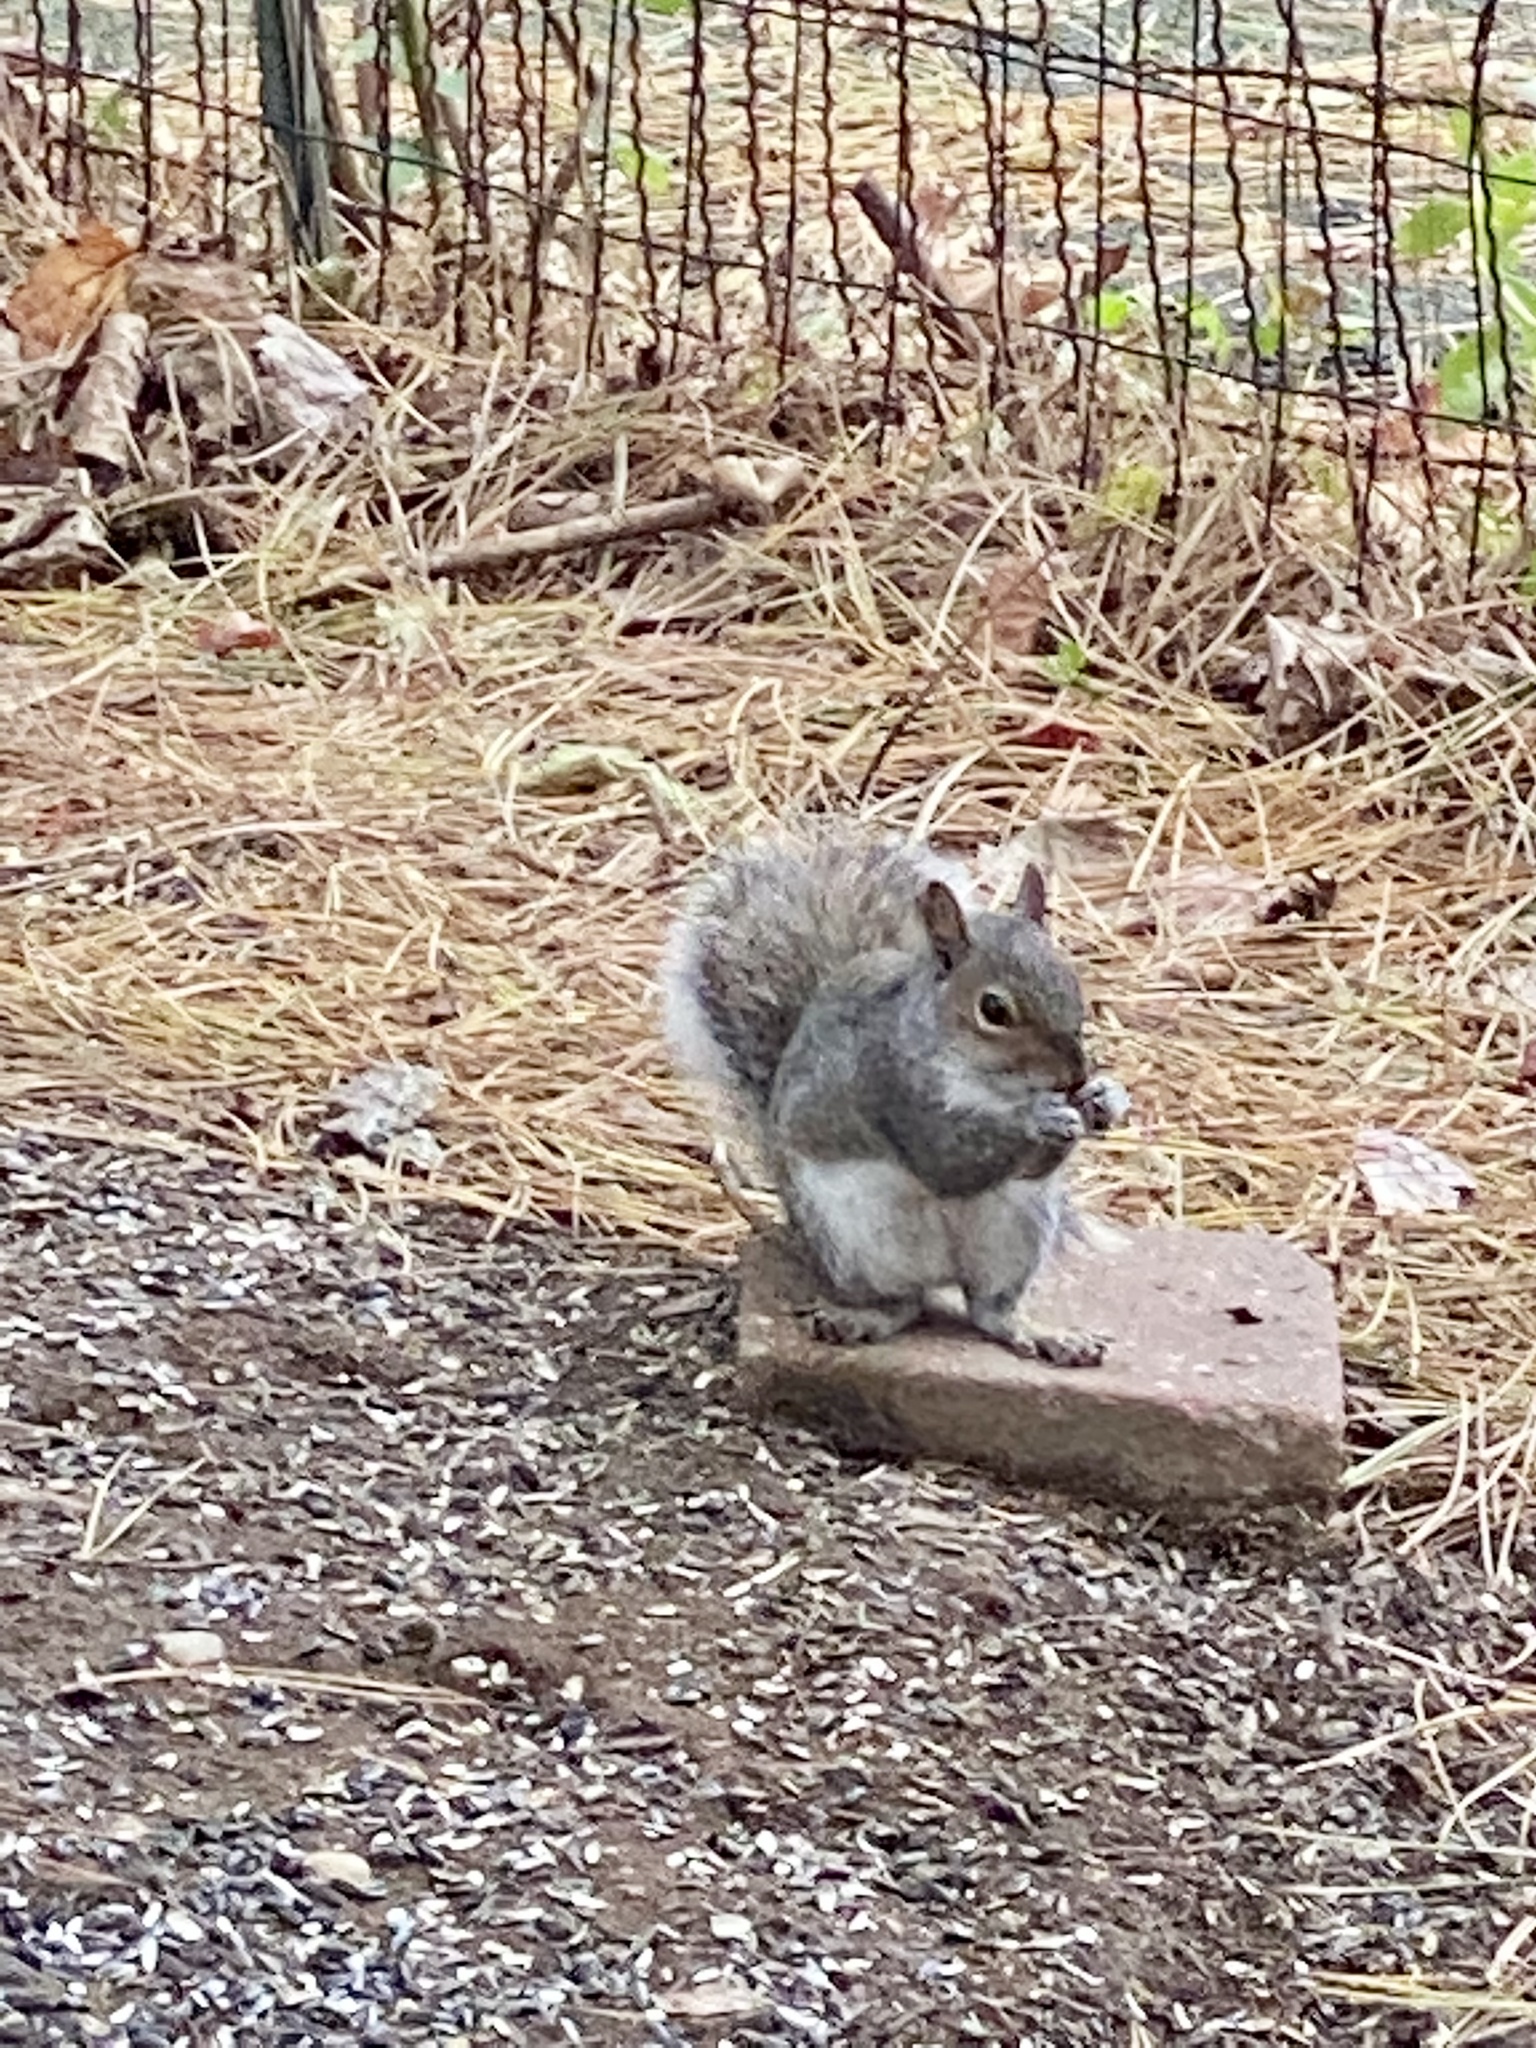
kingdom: Animalia
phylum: Chordata
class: Mammalia
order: Rodentia
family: Sciuridae
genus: Sciurus
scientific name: Sciurus carolinensis
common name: Eastern gray squirrel
